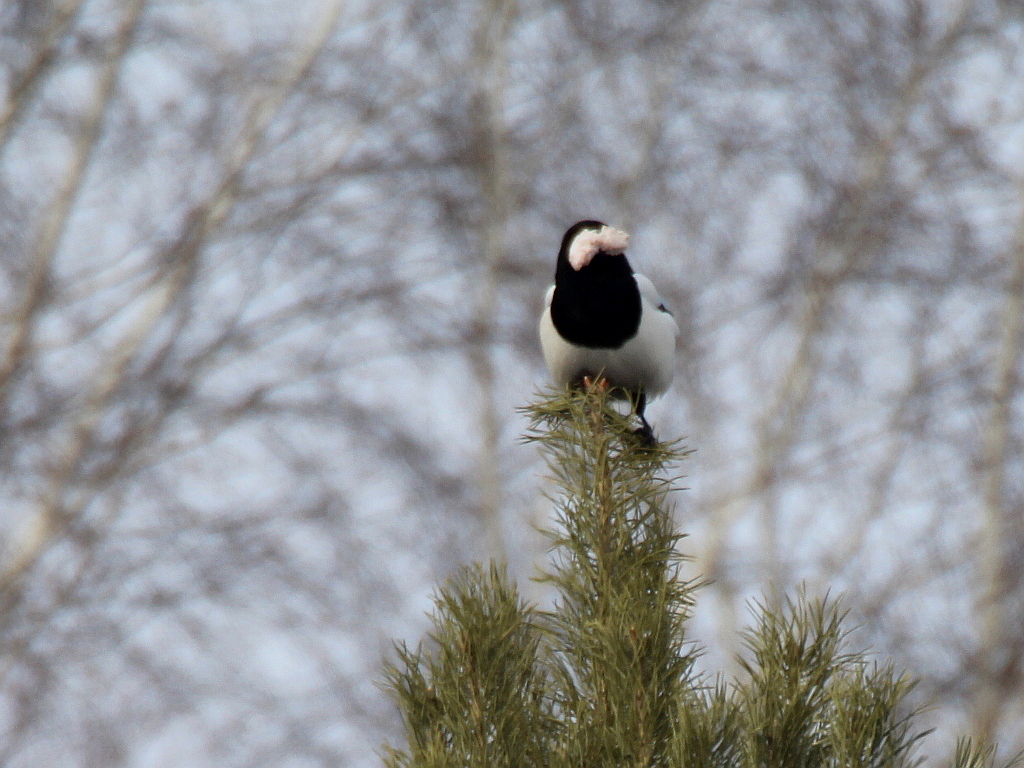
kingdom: Animalia
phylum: Chordata
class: Aves
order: Passeriformes
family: Corvidae
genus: Pica
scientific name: Pica pica
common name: Eurasian magpie
